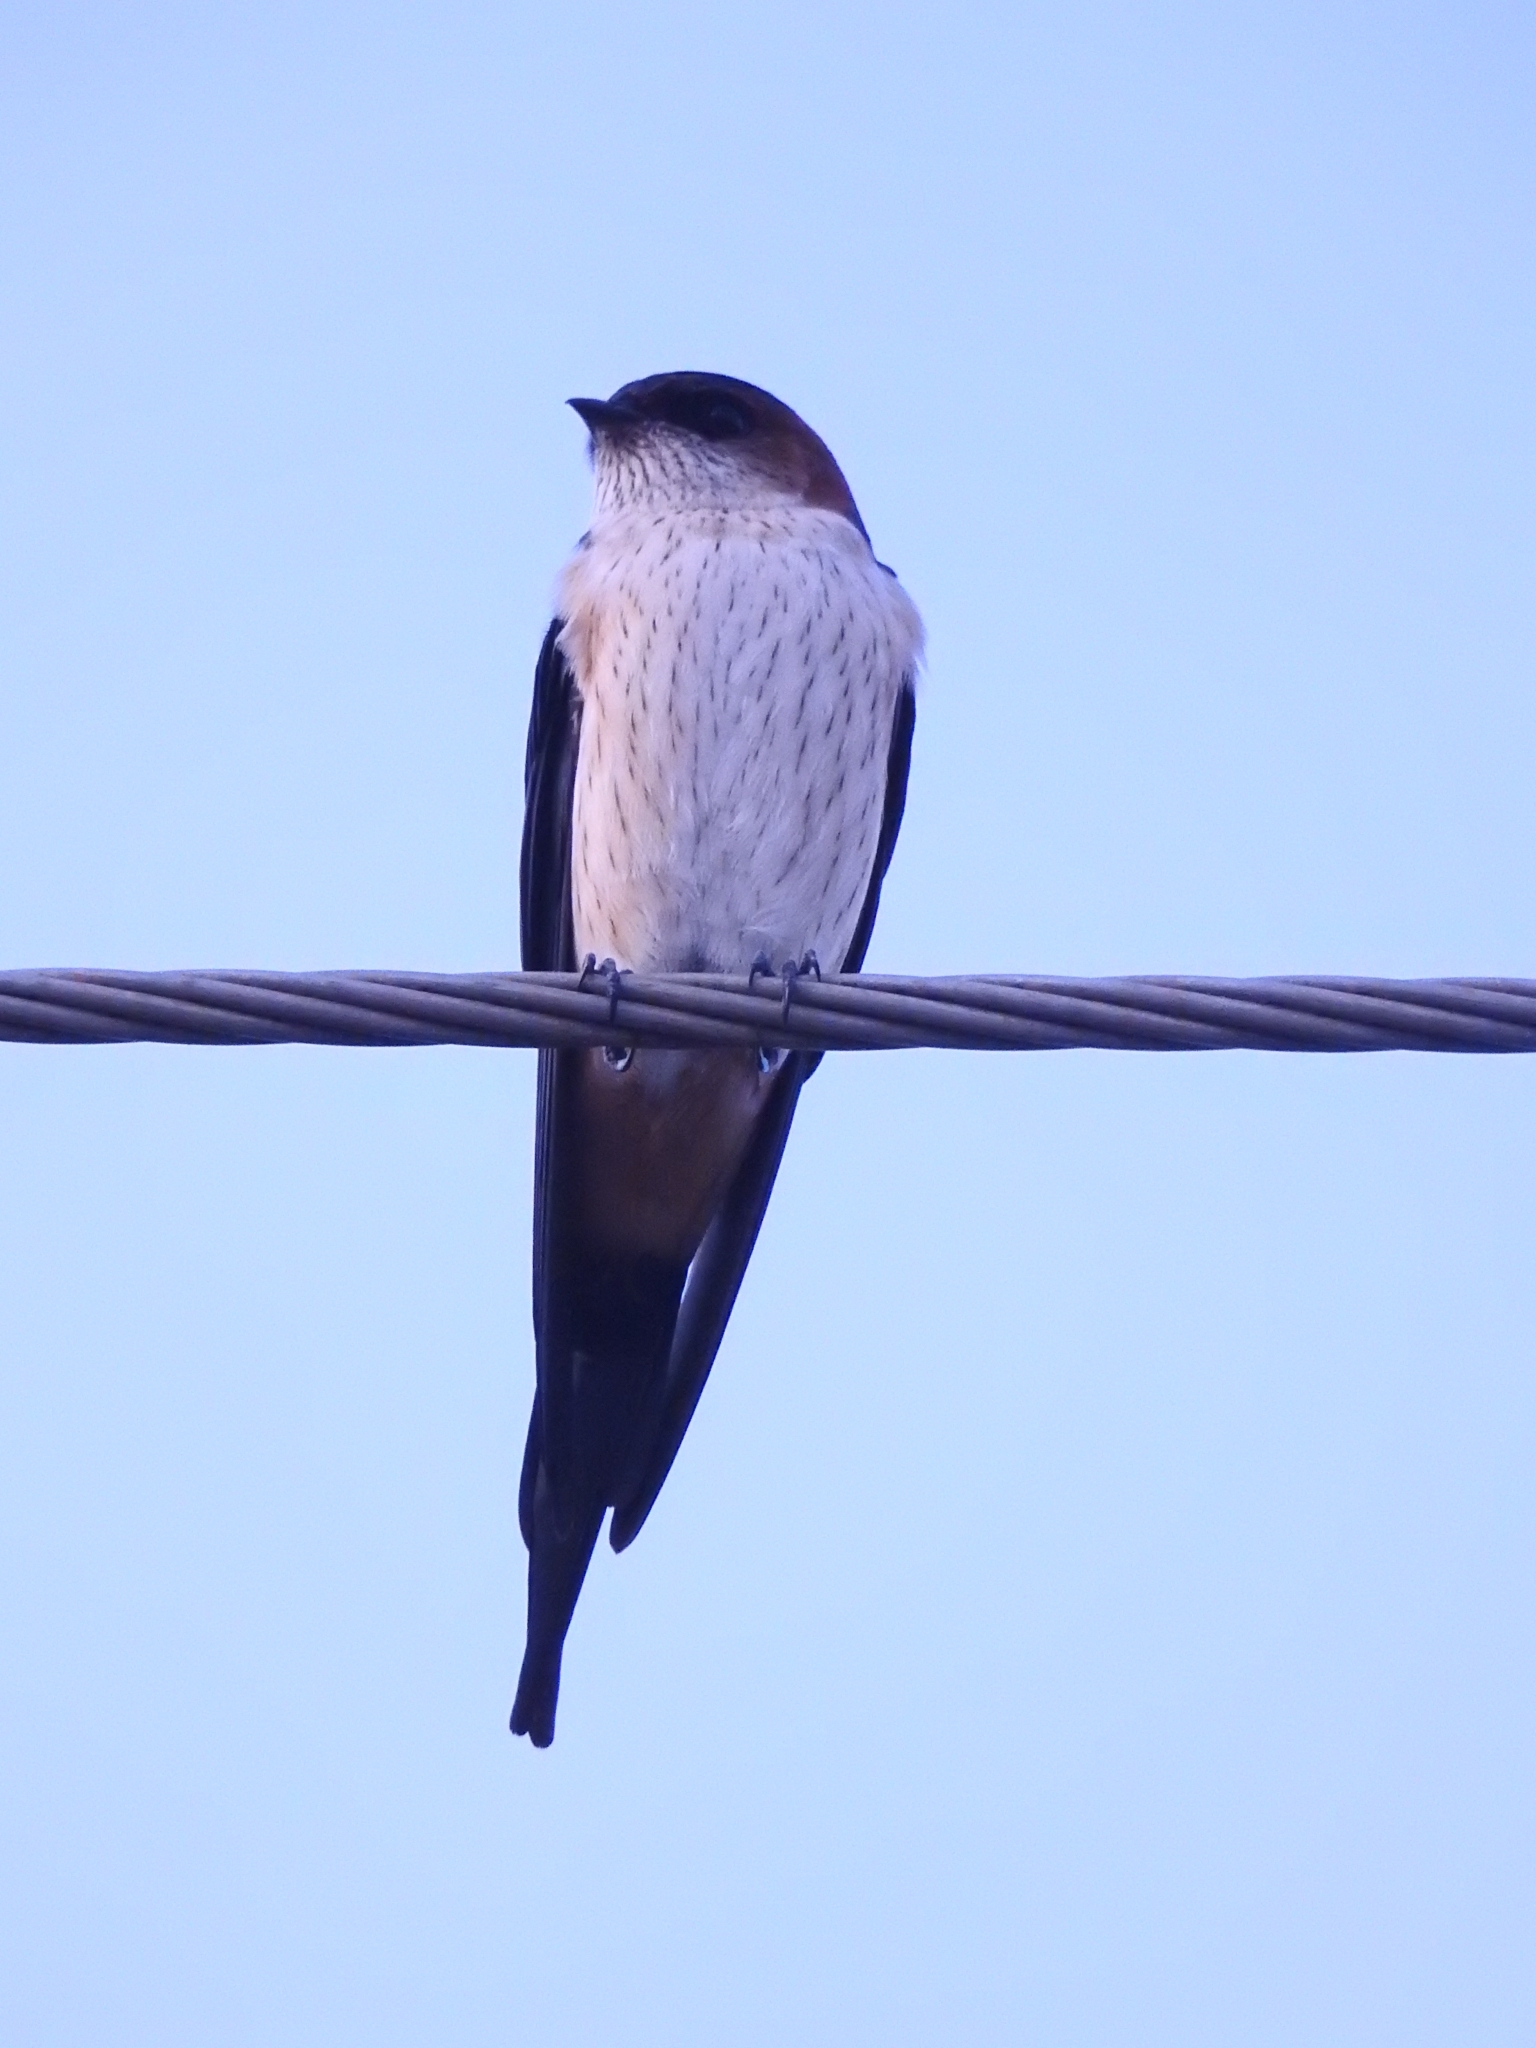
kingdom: Animalia
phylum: Chordata
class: Aves
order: Passeriformes
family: Hirundinidae
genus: Cecropis
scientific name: Cecropis daurica
